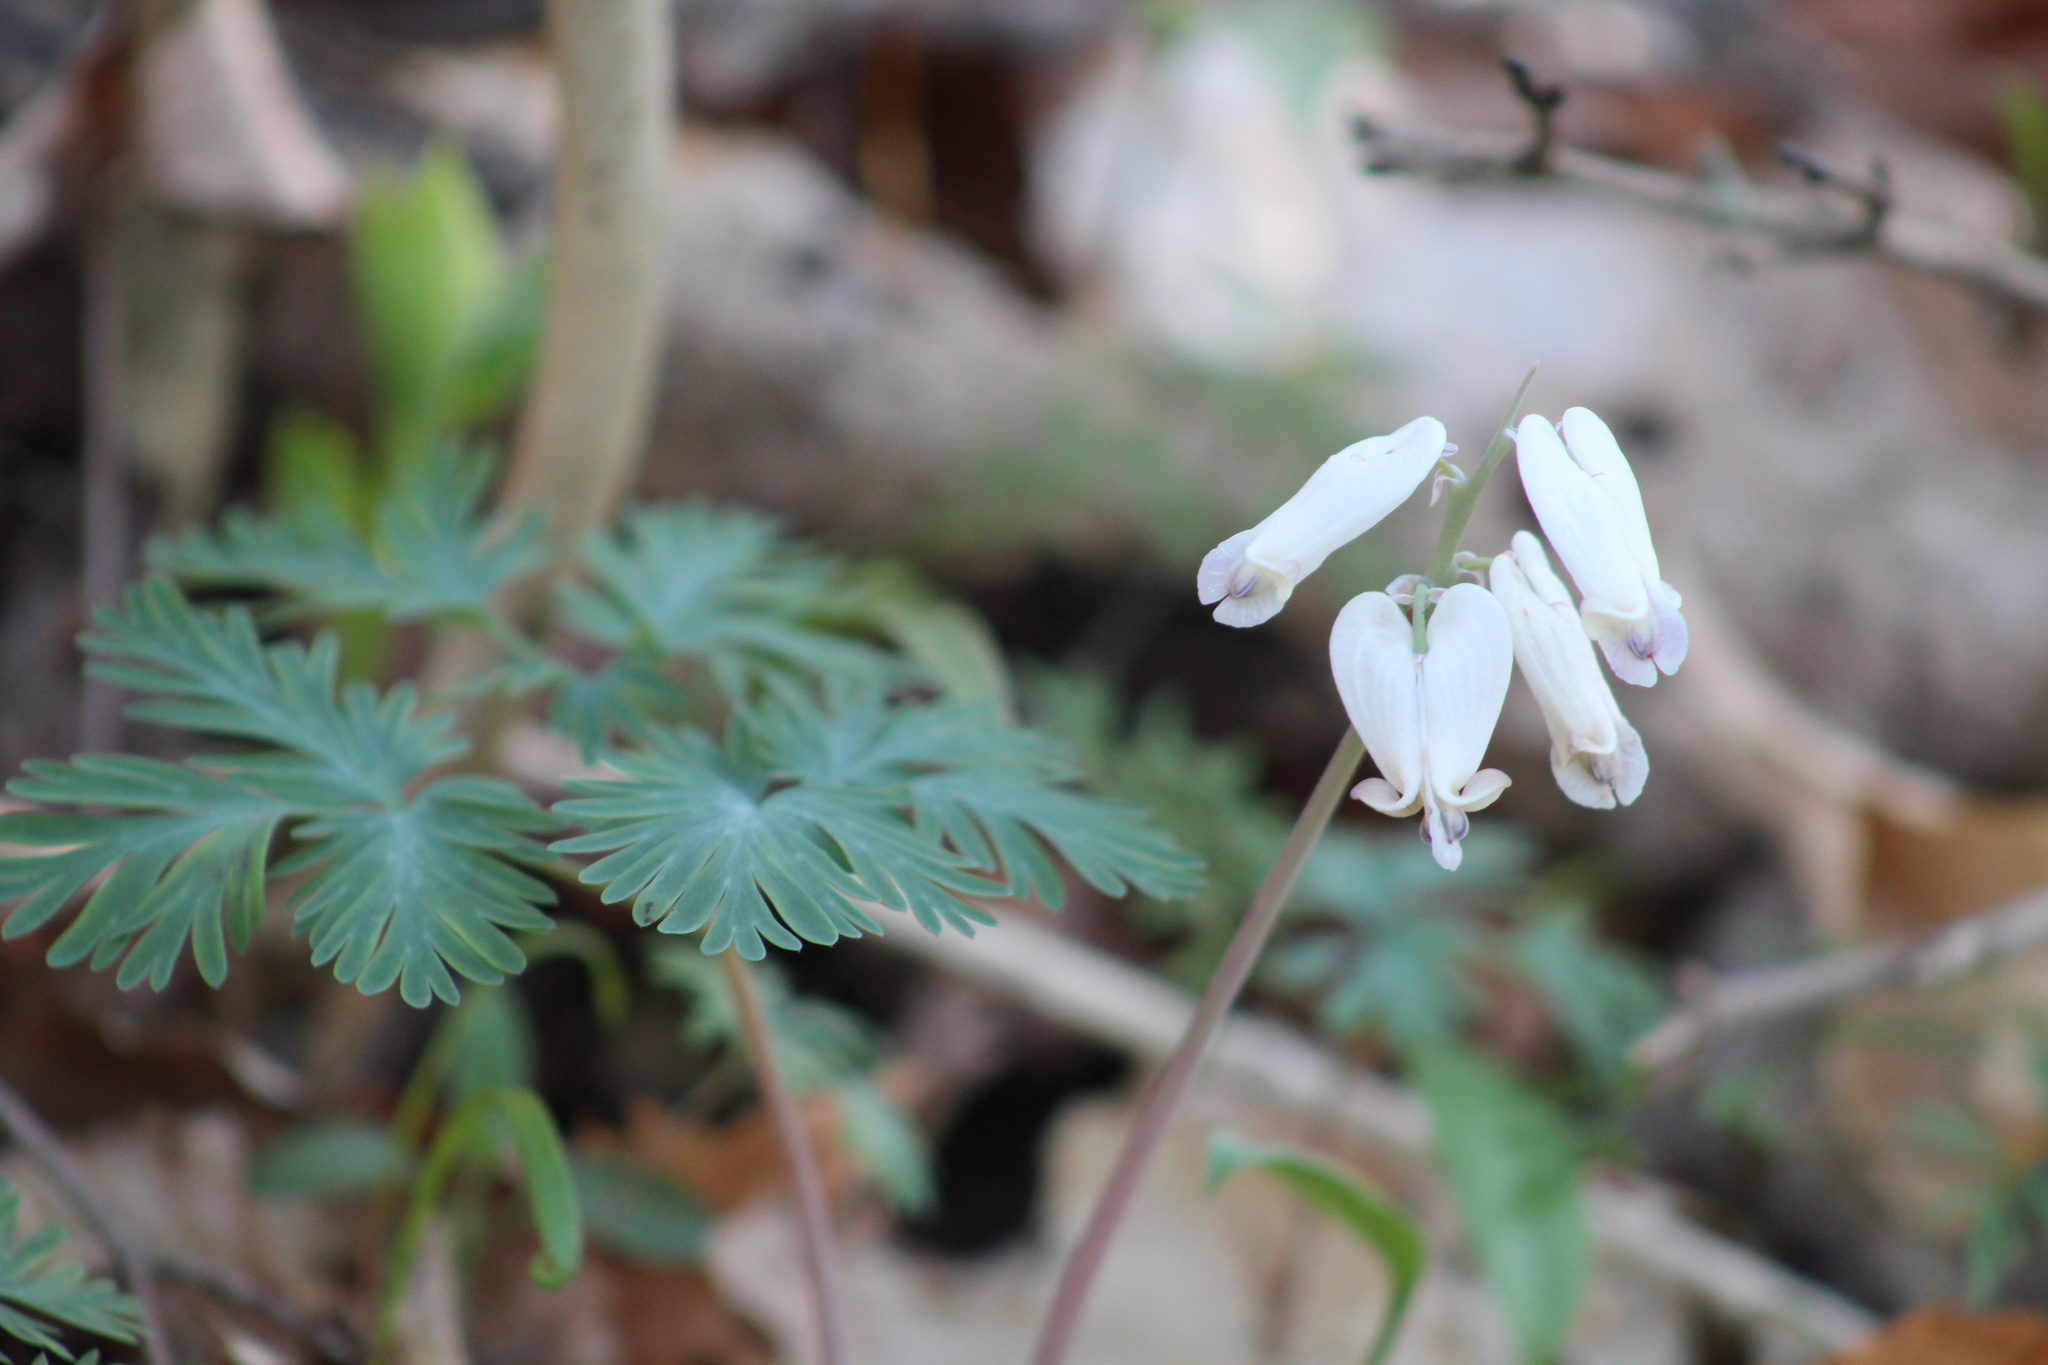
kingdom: Plantae
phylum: Tracheophyta
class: Magnoliopsida
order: Ranunculales
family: Papaveraceae
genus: Dicentra
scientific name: Dicentra canadensis
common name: Squirrel-corn
